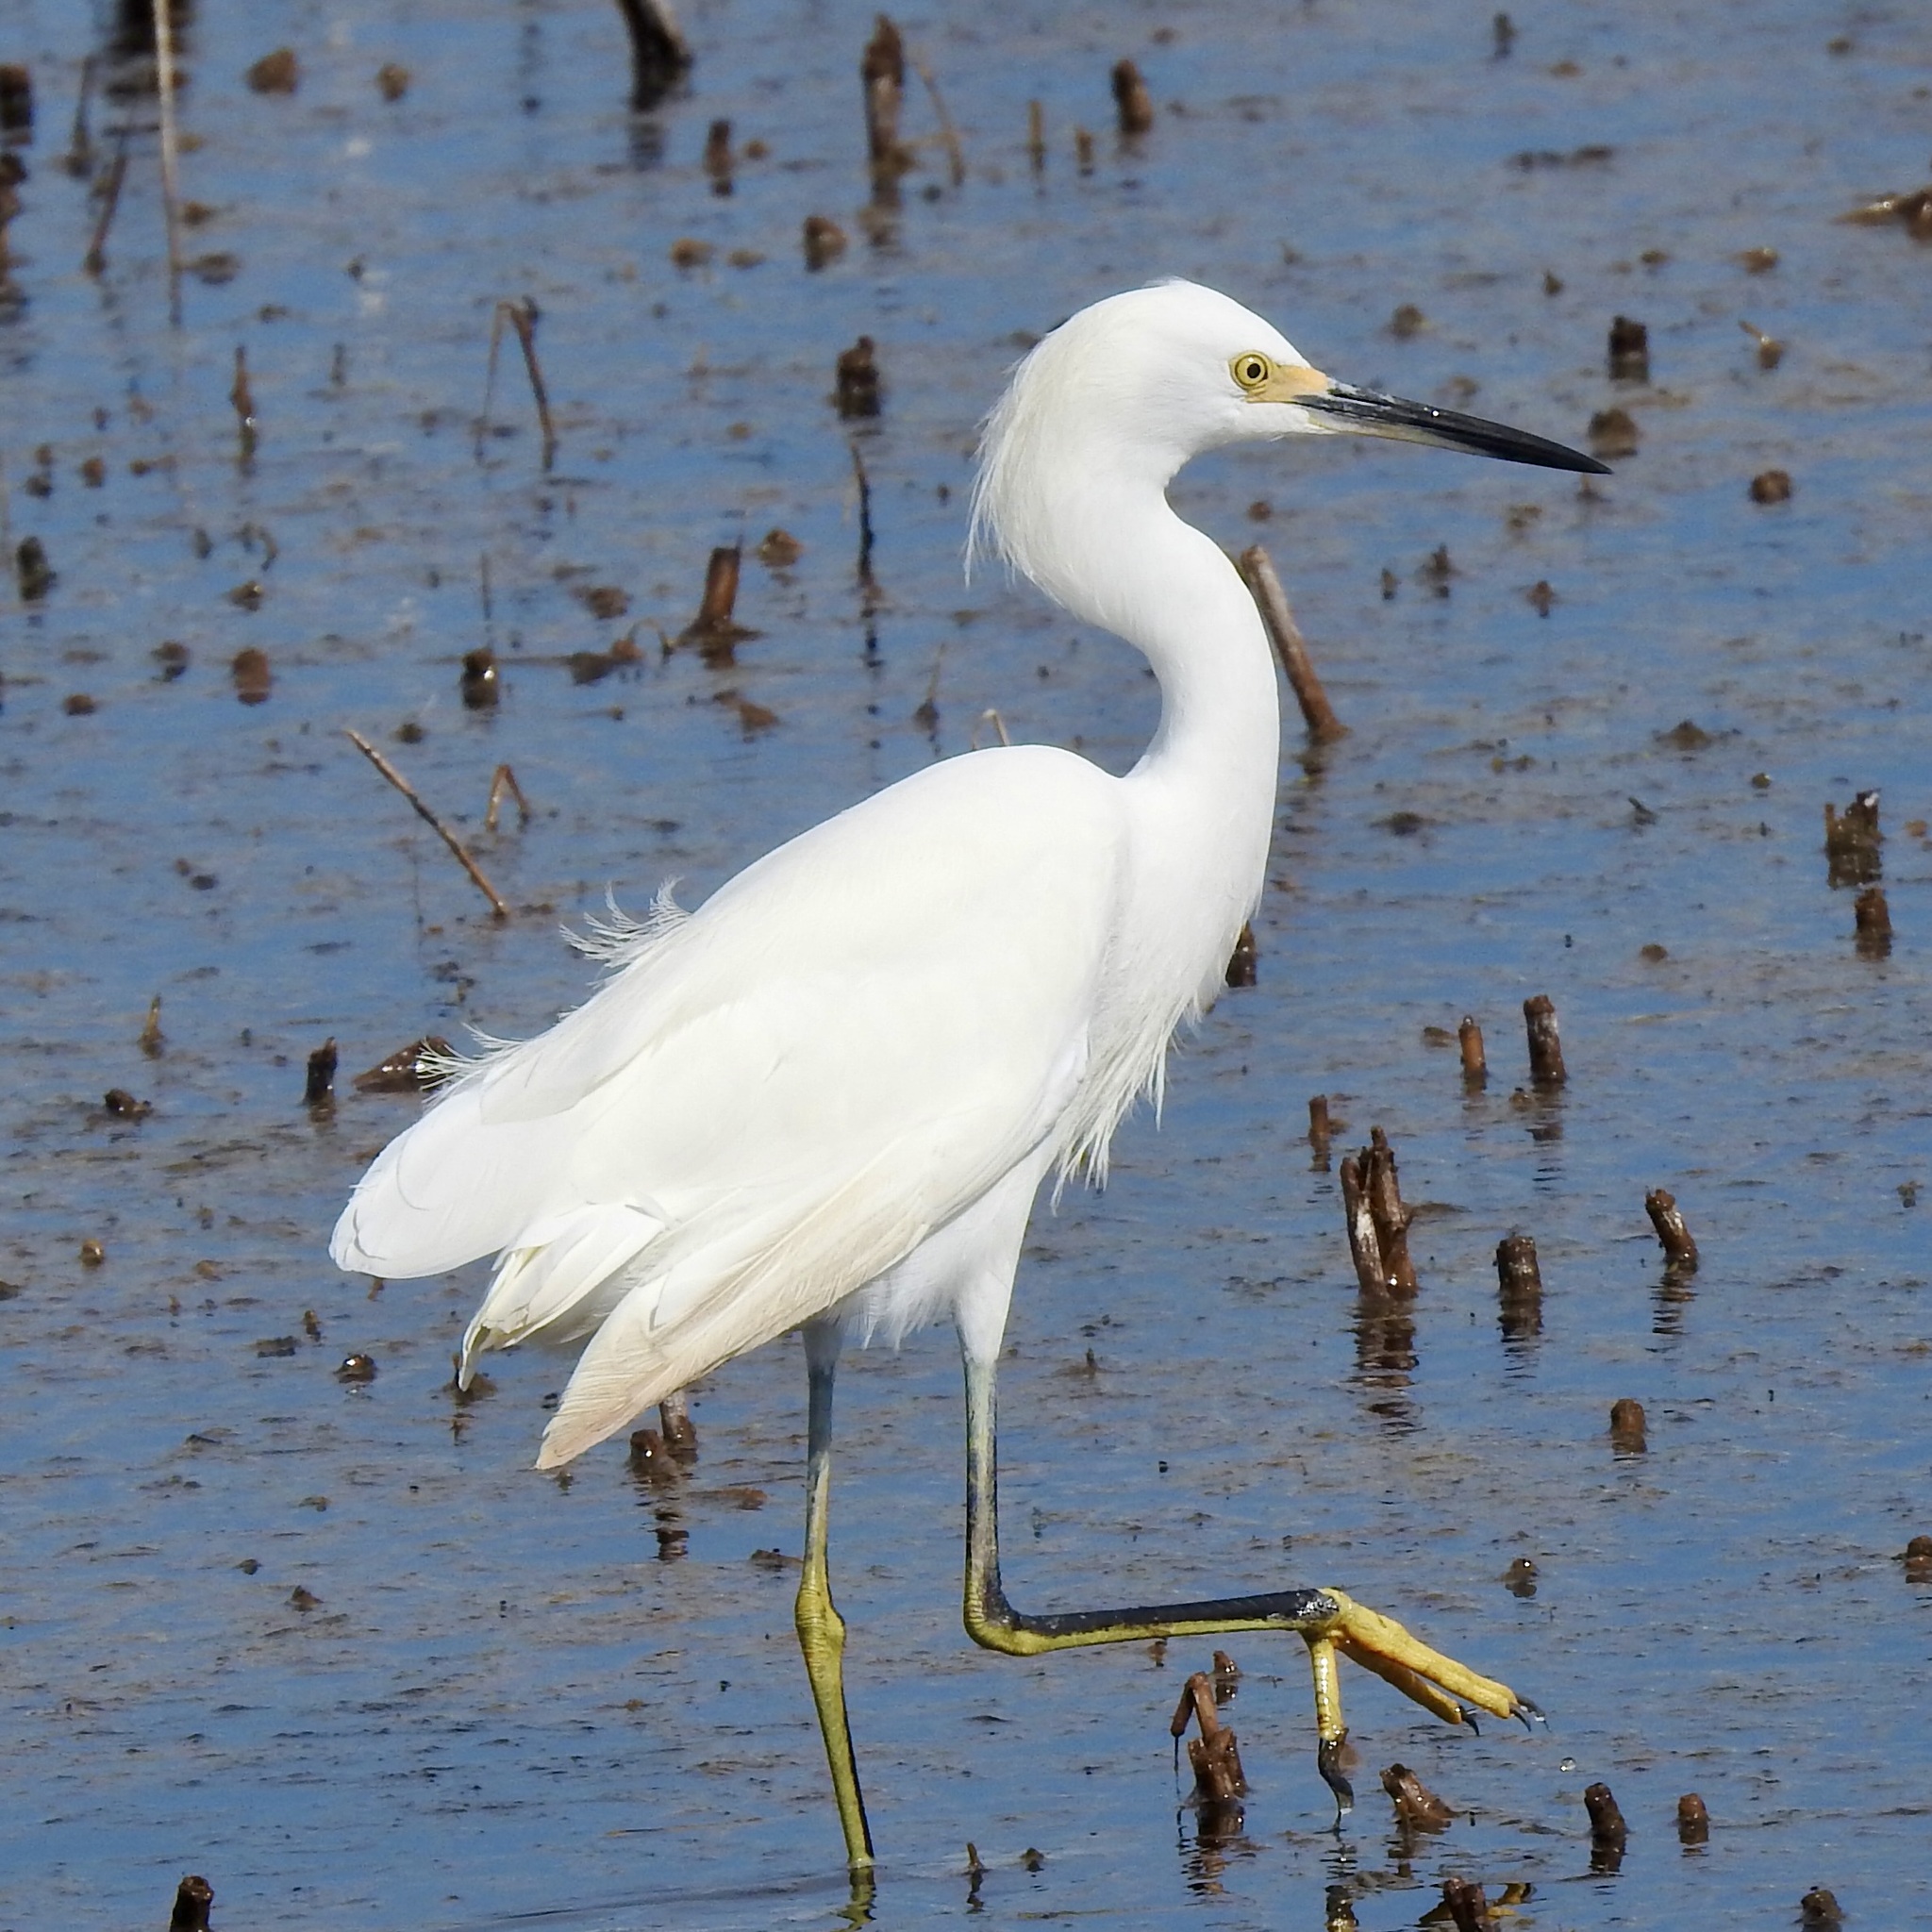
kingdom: Animalia
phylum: Chordata
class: Aves
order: Pelecaniformes
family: Ardeidae
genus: Egretta
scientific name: Egretta thula
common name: Snowy egret
